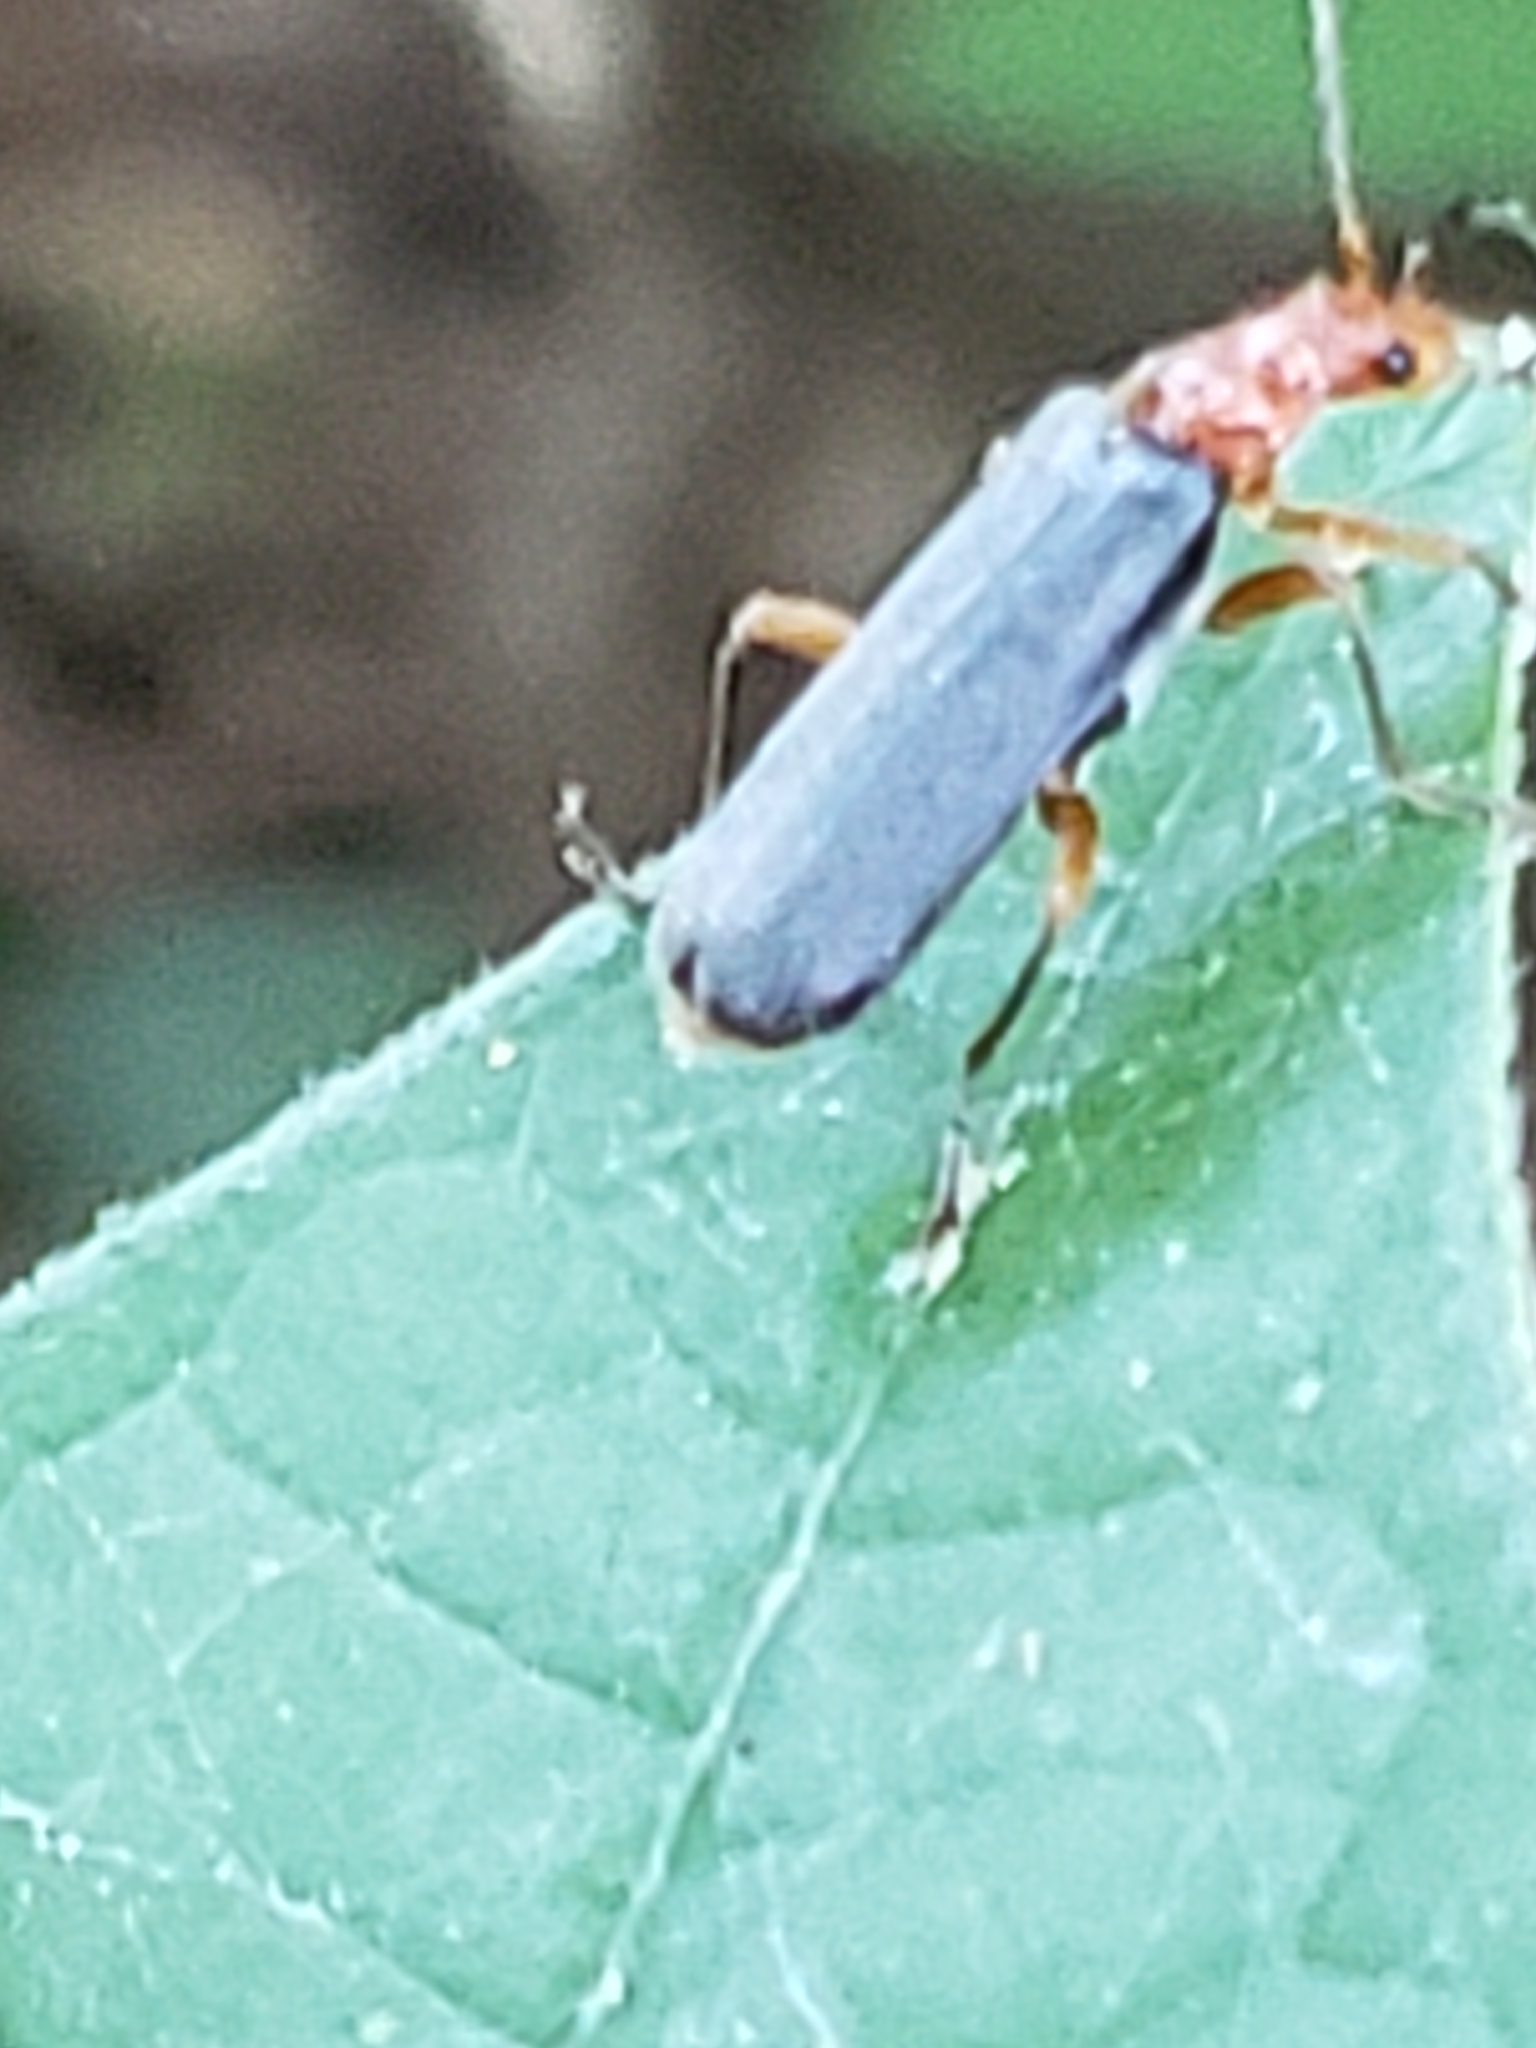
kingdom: Animalia
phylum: Arthropoda
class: Insecta
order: Coleoptera
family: Cantharidae
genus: Podabrus
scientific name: Podabrus tomentosus
